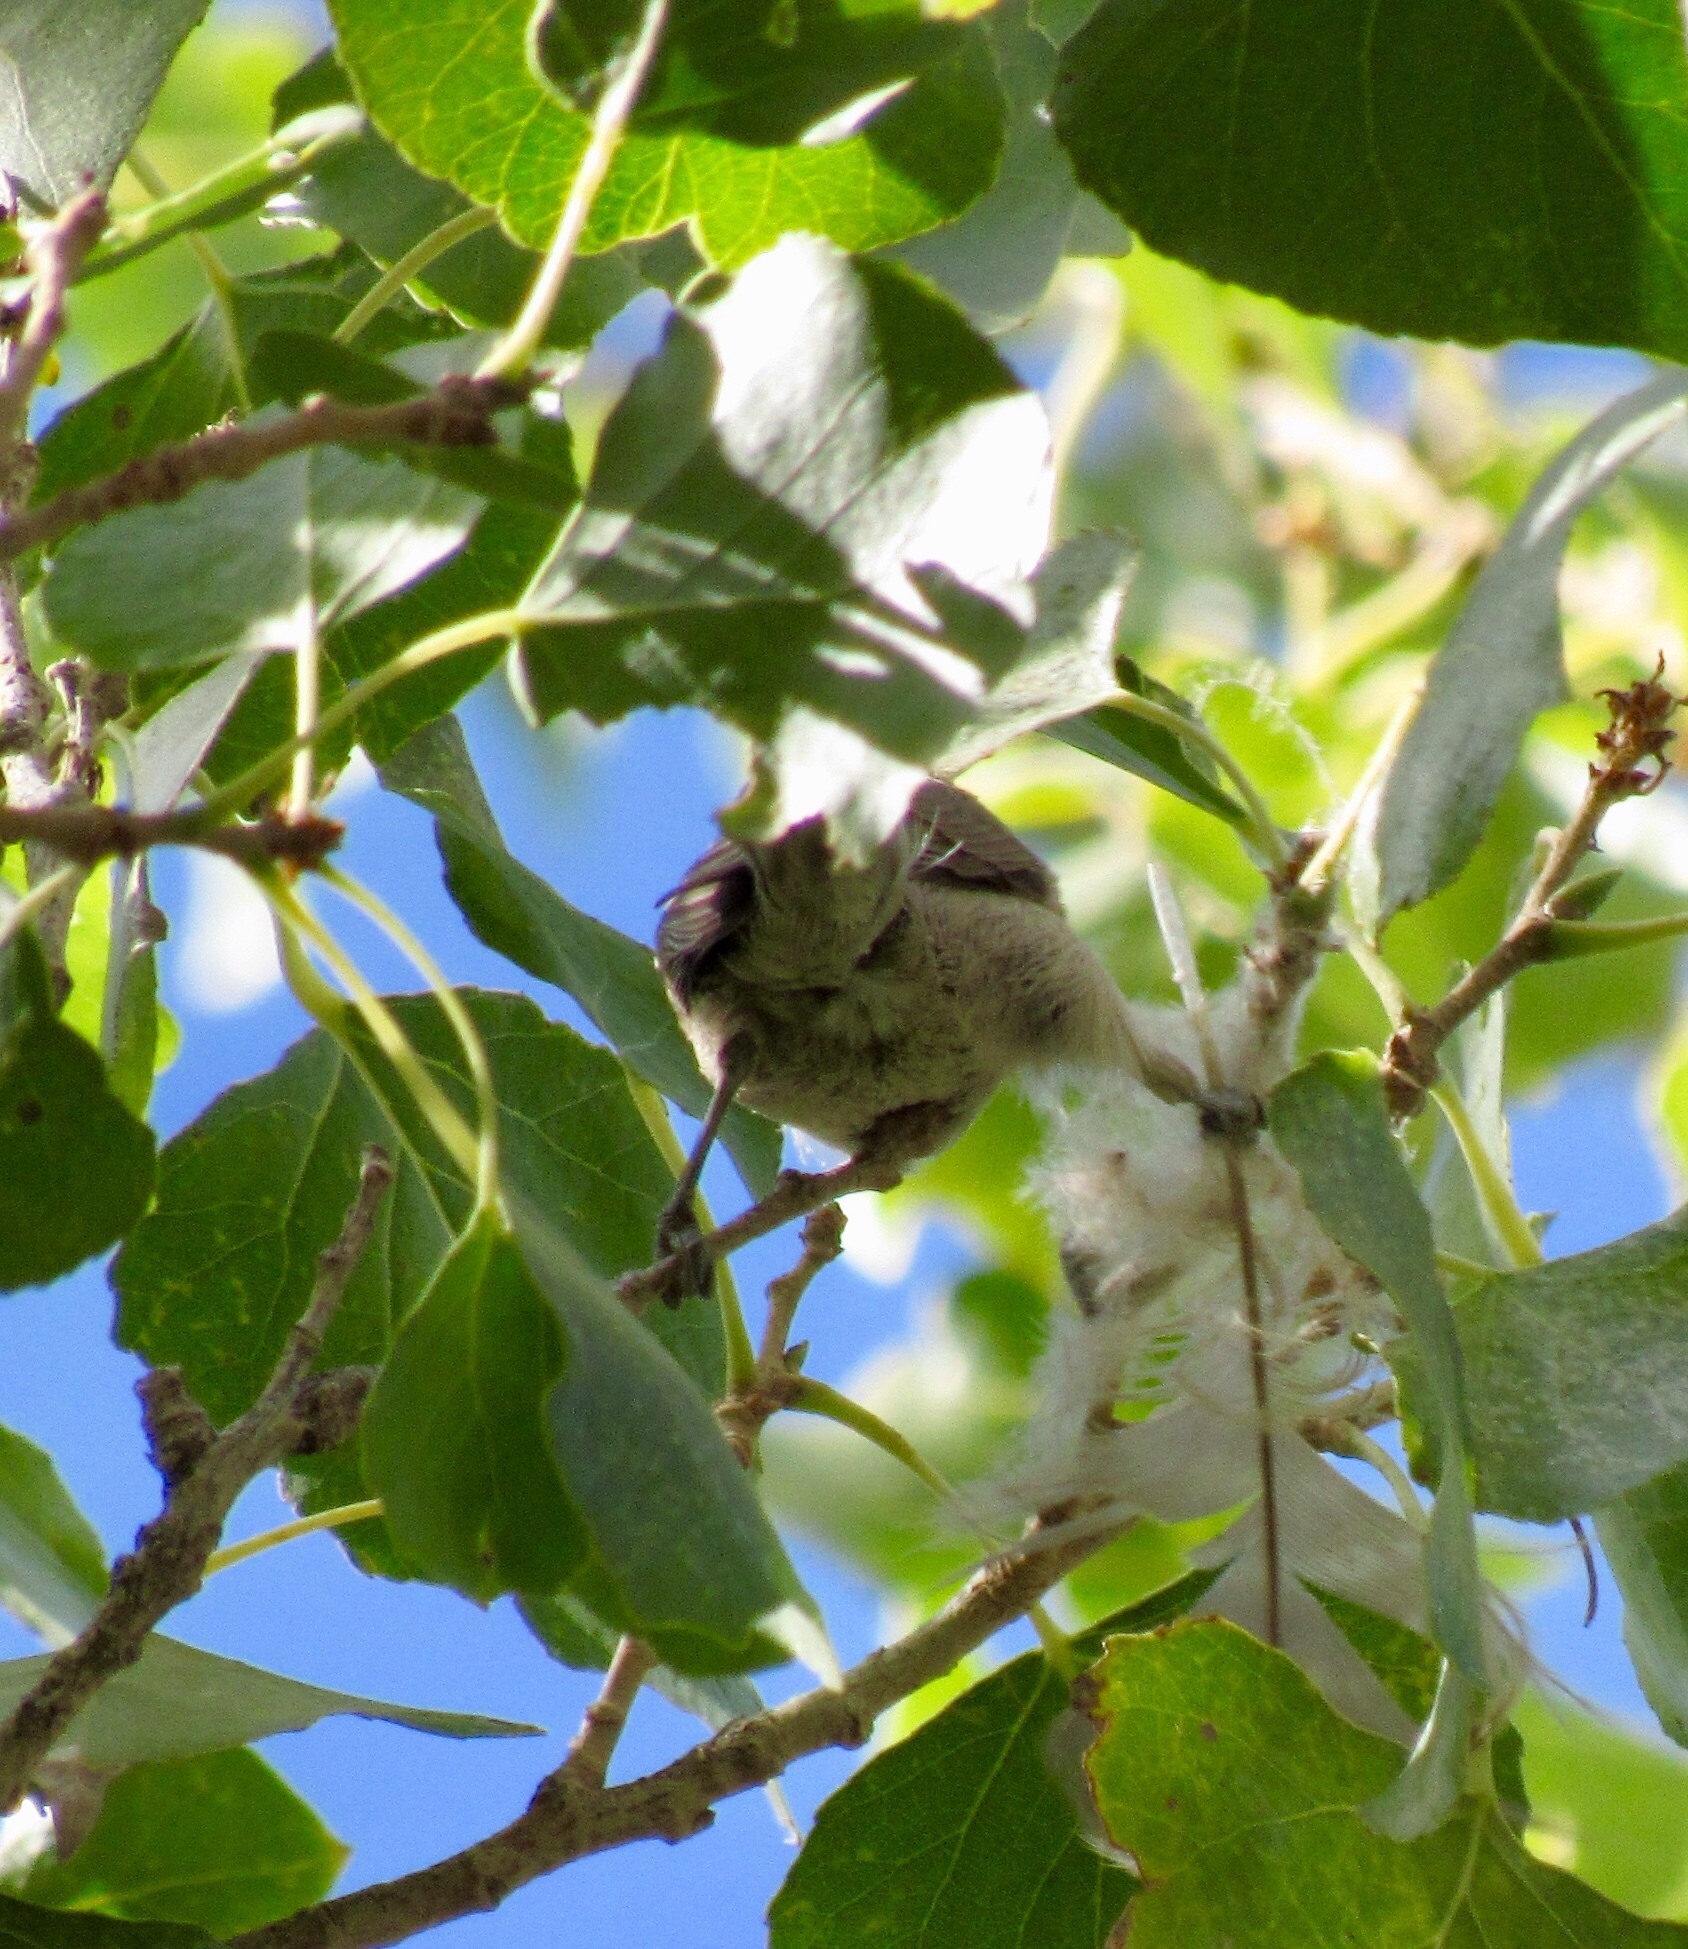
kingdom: Animalia
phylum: Chordata
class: Aves
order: Passeriformes
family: Remizidae
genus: Auriparus
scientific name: Auriparus flaviceps
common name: Verdin
